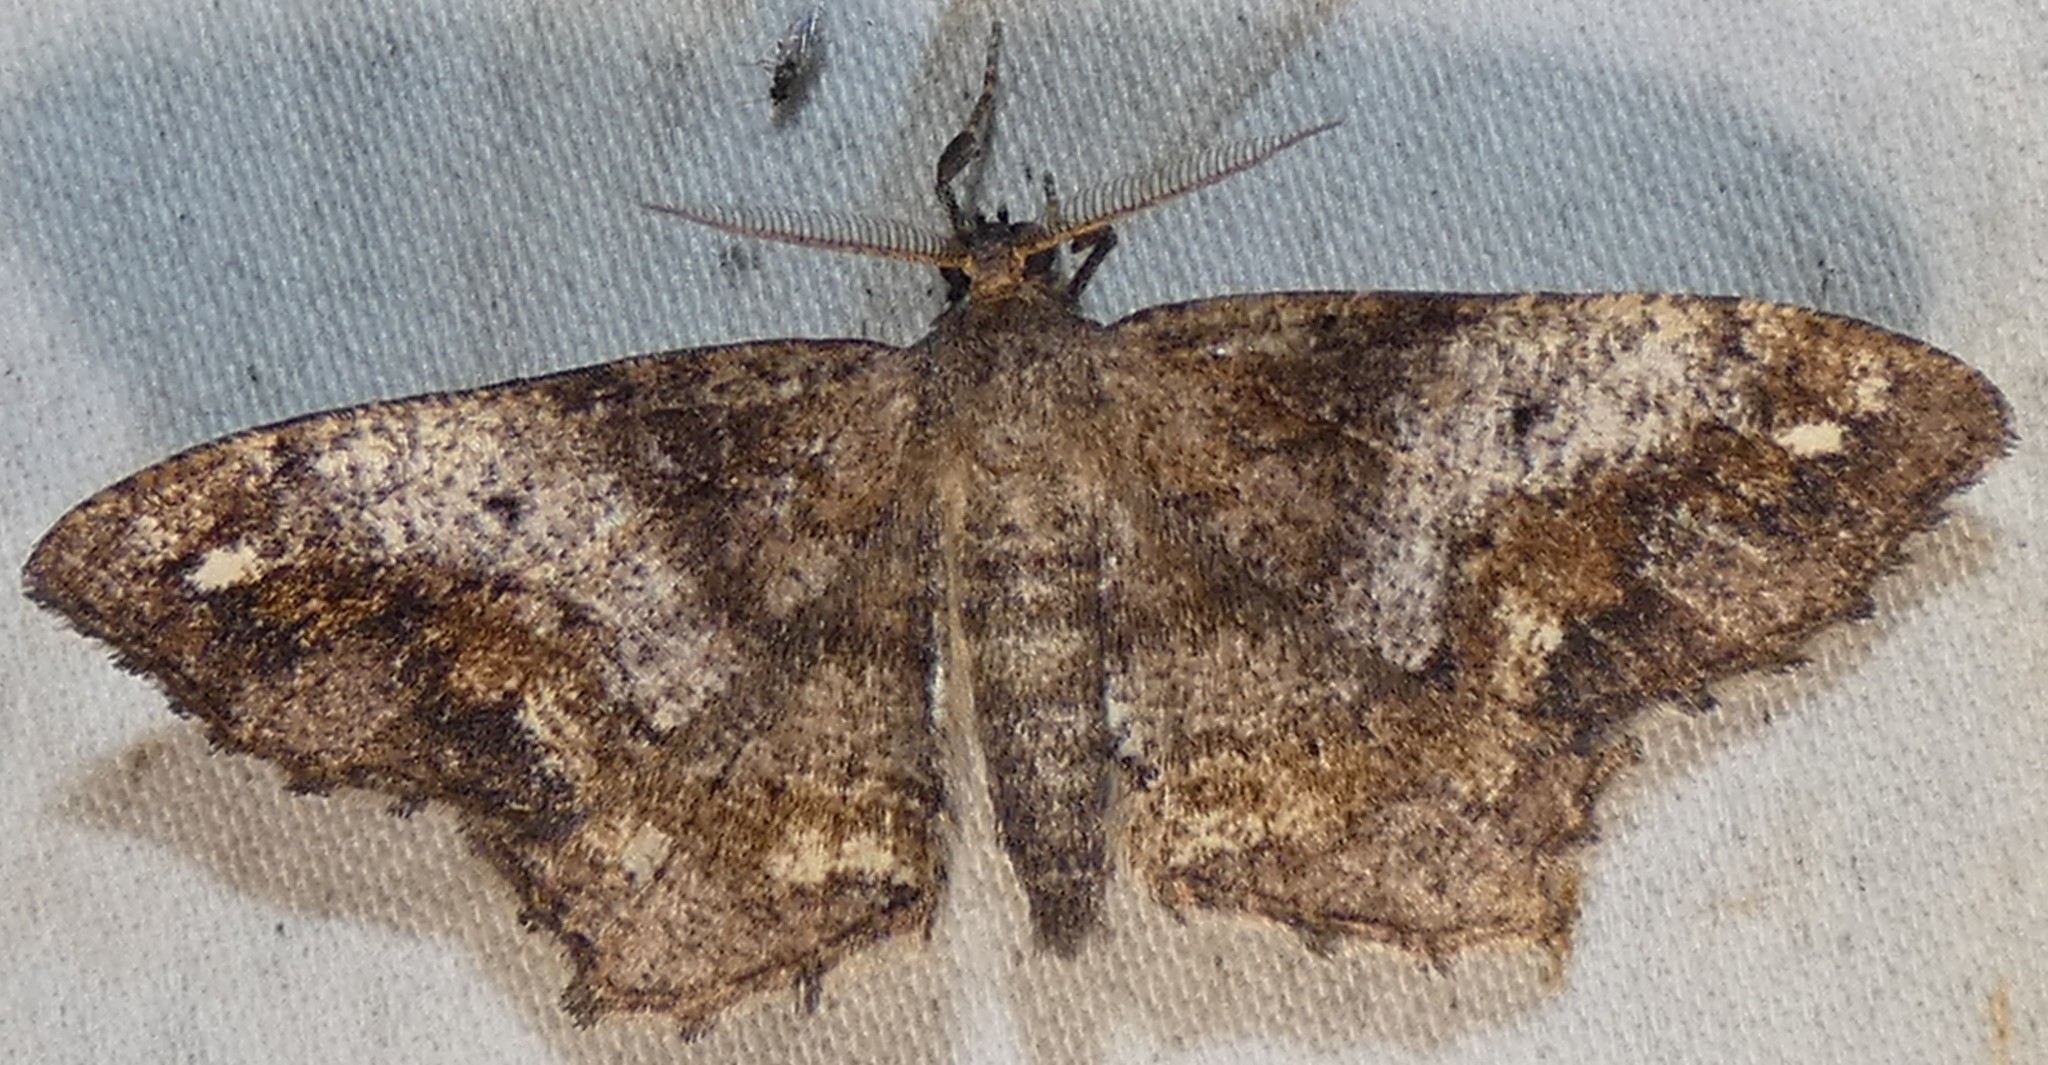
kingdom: Animalia
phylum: Arthropoda
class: Insecta
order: Lepidoptera
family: Geometridae
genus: Hypagyrtis
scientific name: Hypagyrtis unipunctata
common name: One-spotted variant
